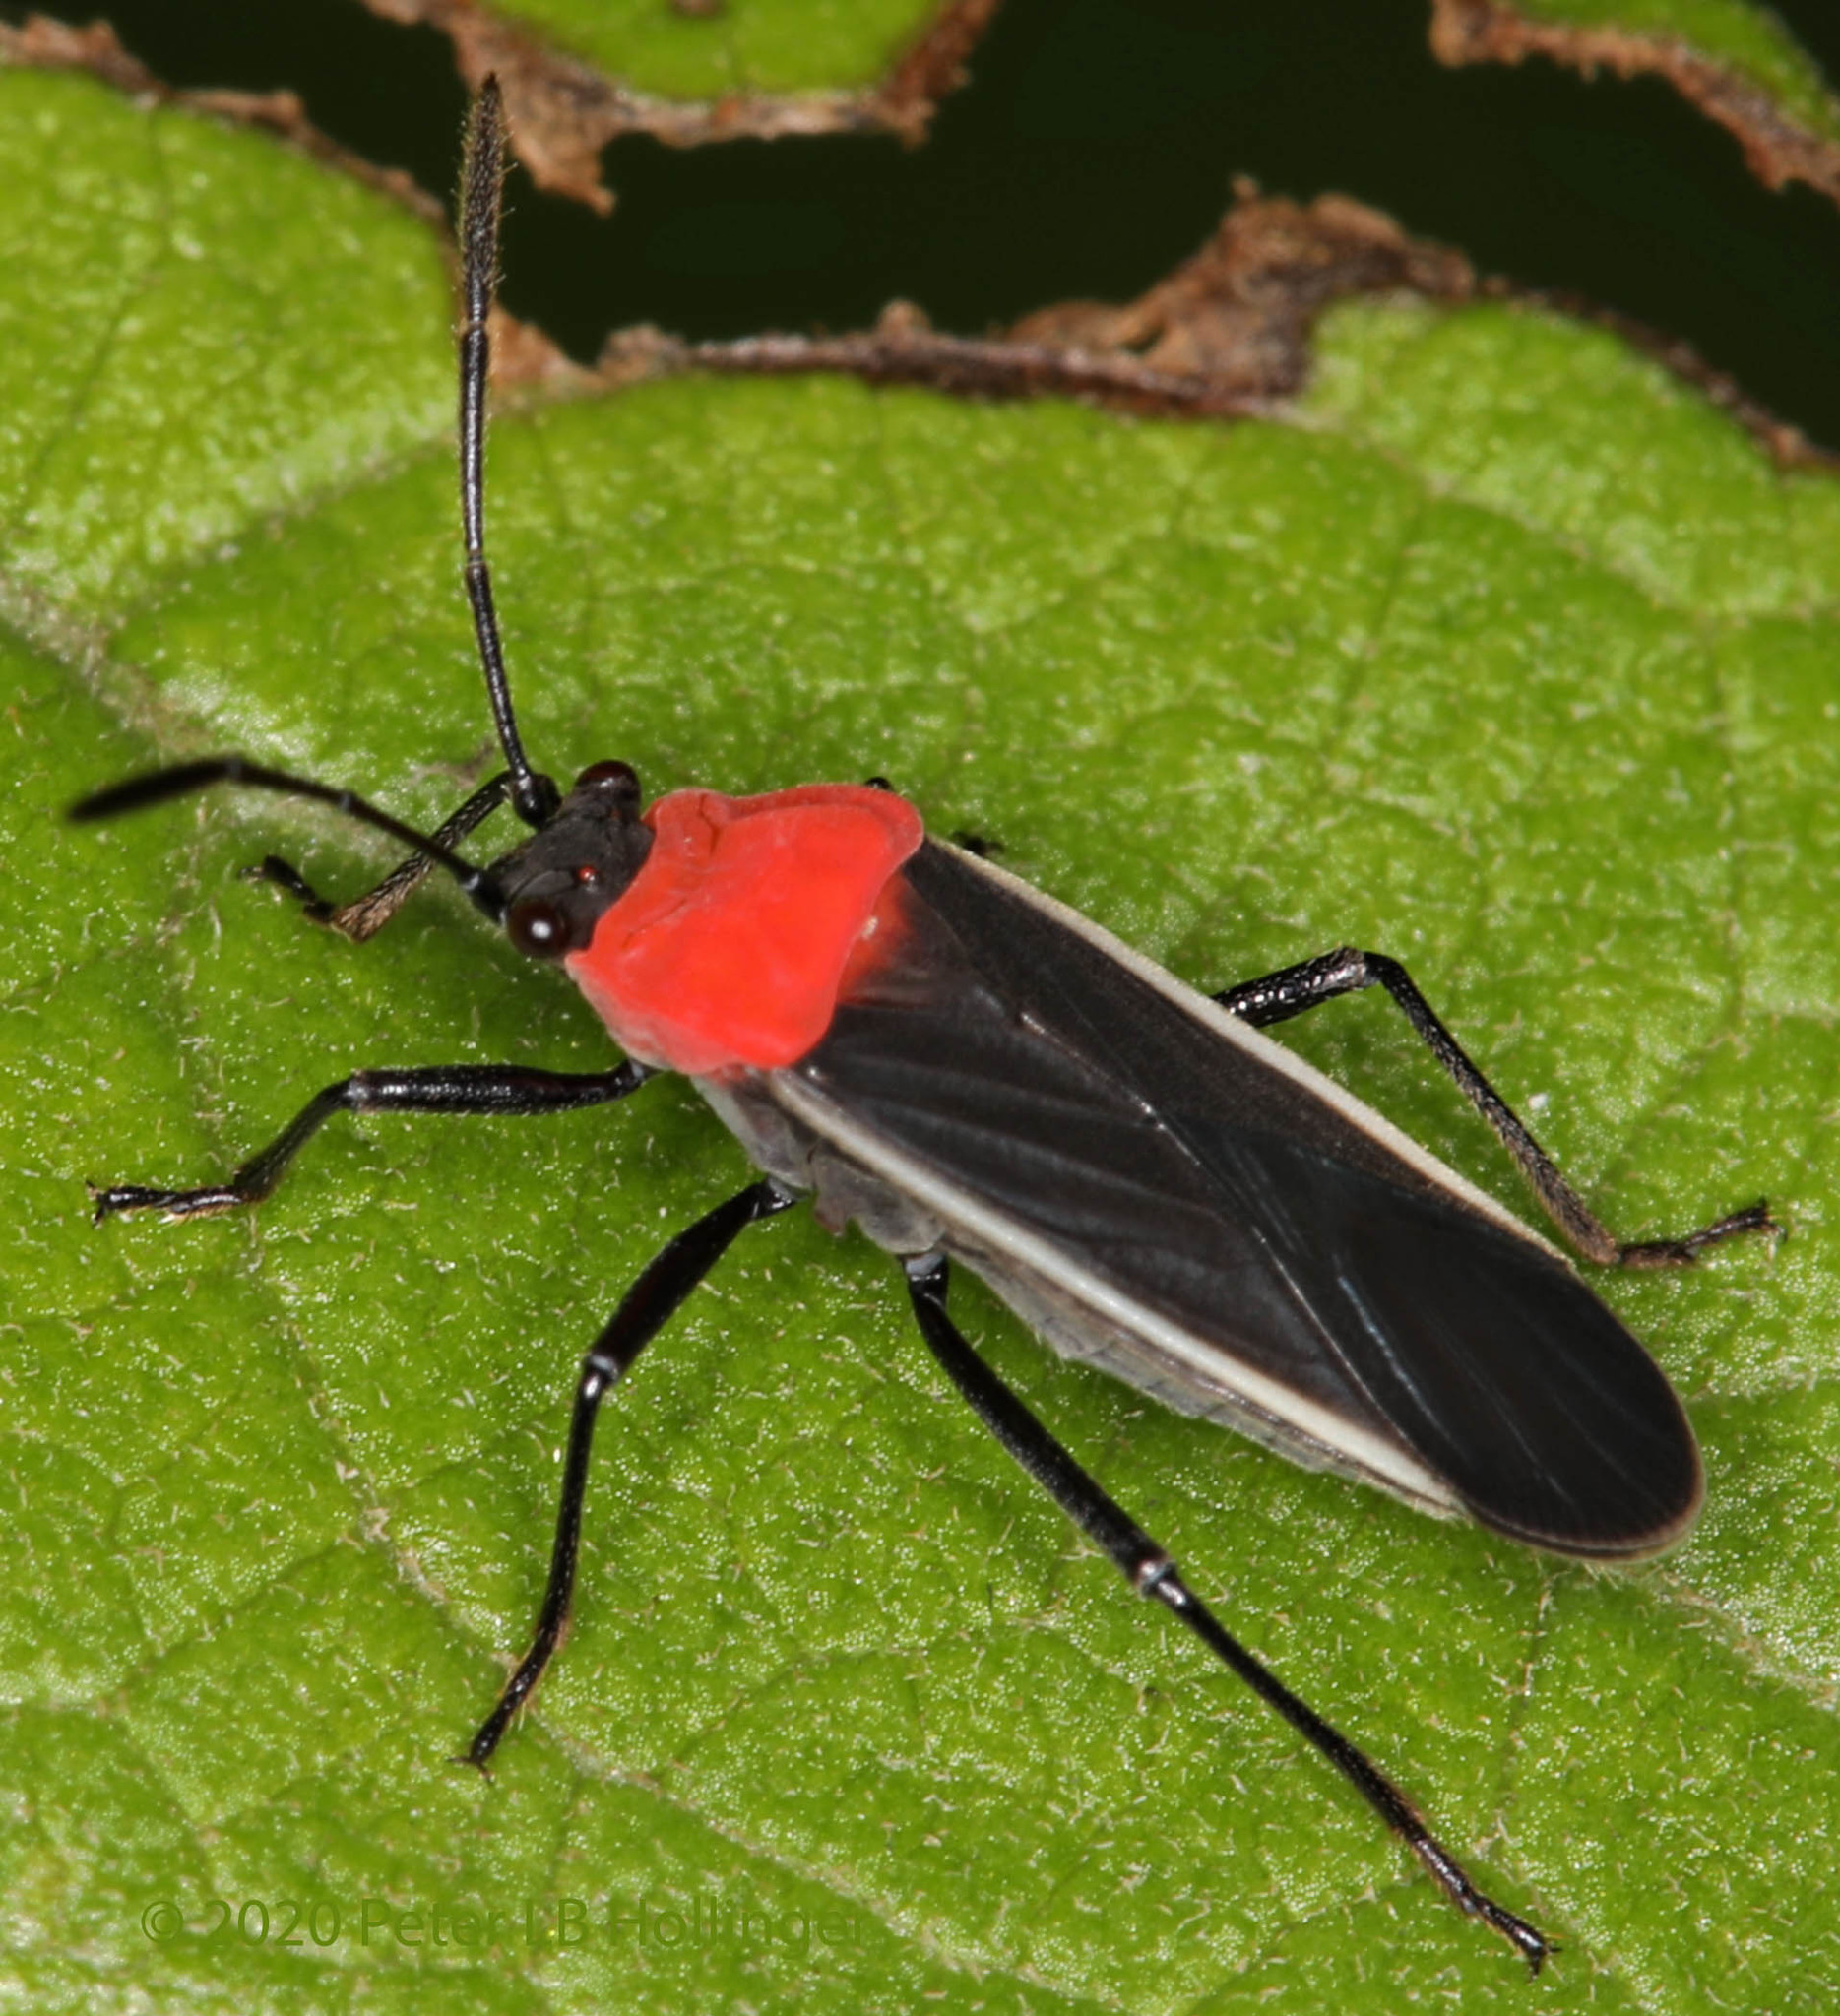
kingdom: Animalia
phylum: Arthropoda
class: Insecta
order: Hemiptera
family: Lygaeidae
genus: Nicuesa
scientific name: Nicuesa speciosa
